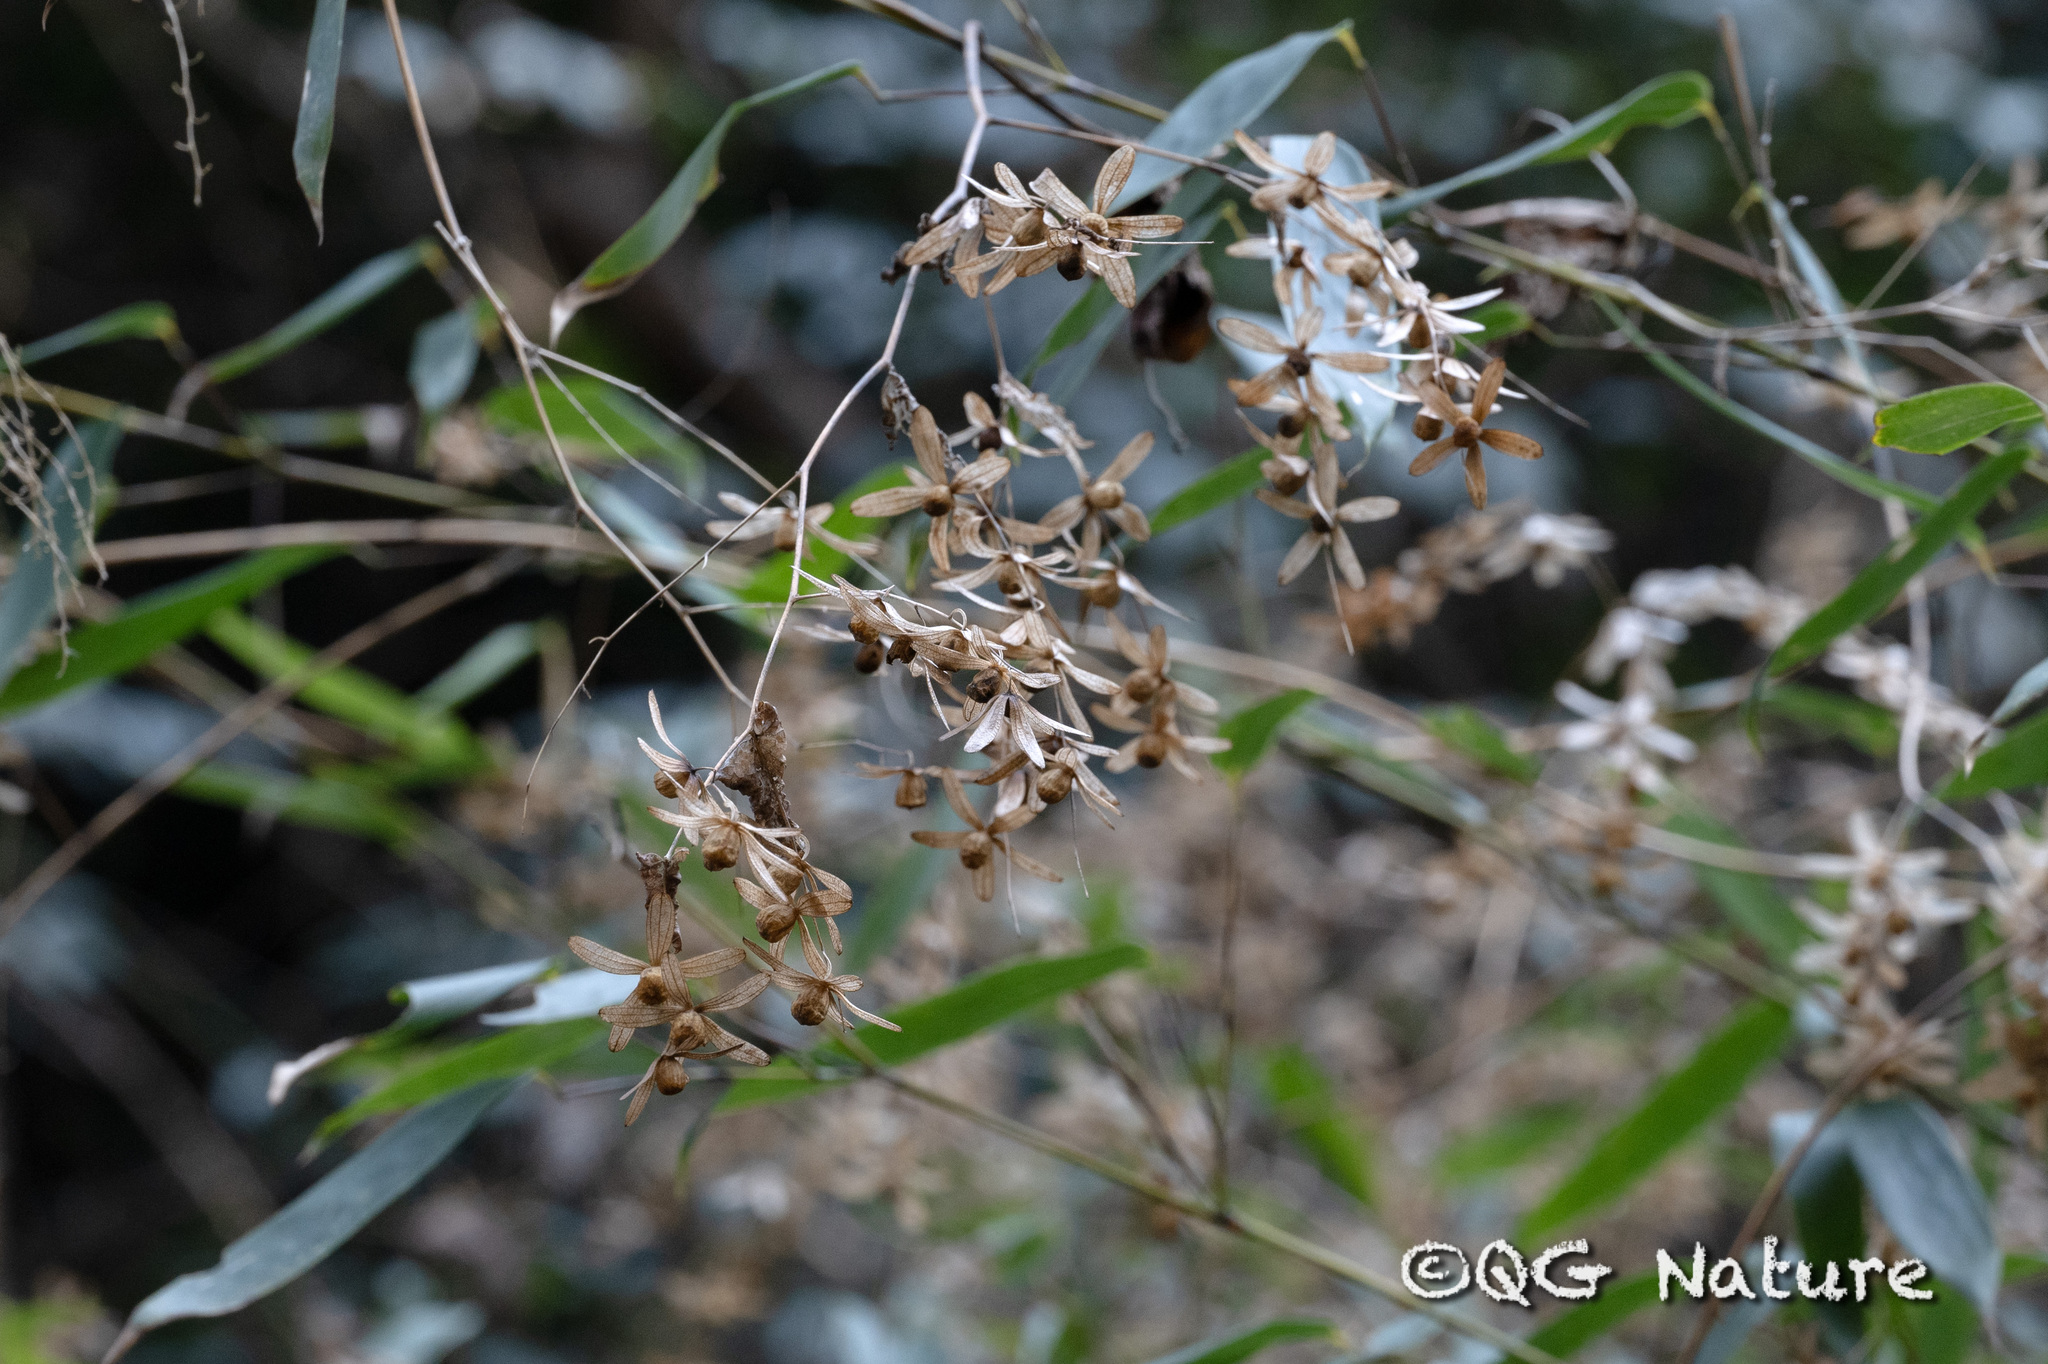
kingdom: Plantae
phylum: Tracheophyta
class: Magnoliopsida
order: Solanales
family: Convolvulaceae
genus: Dinetus
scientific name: Dinetus racemosus
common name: Snowcreeper
